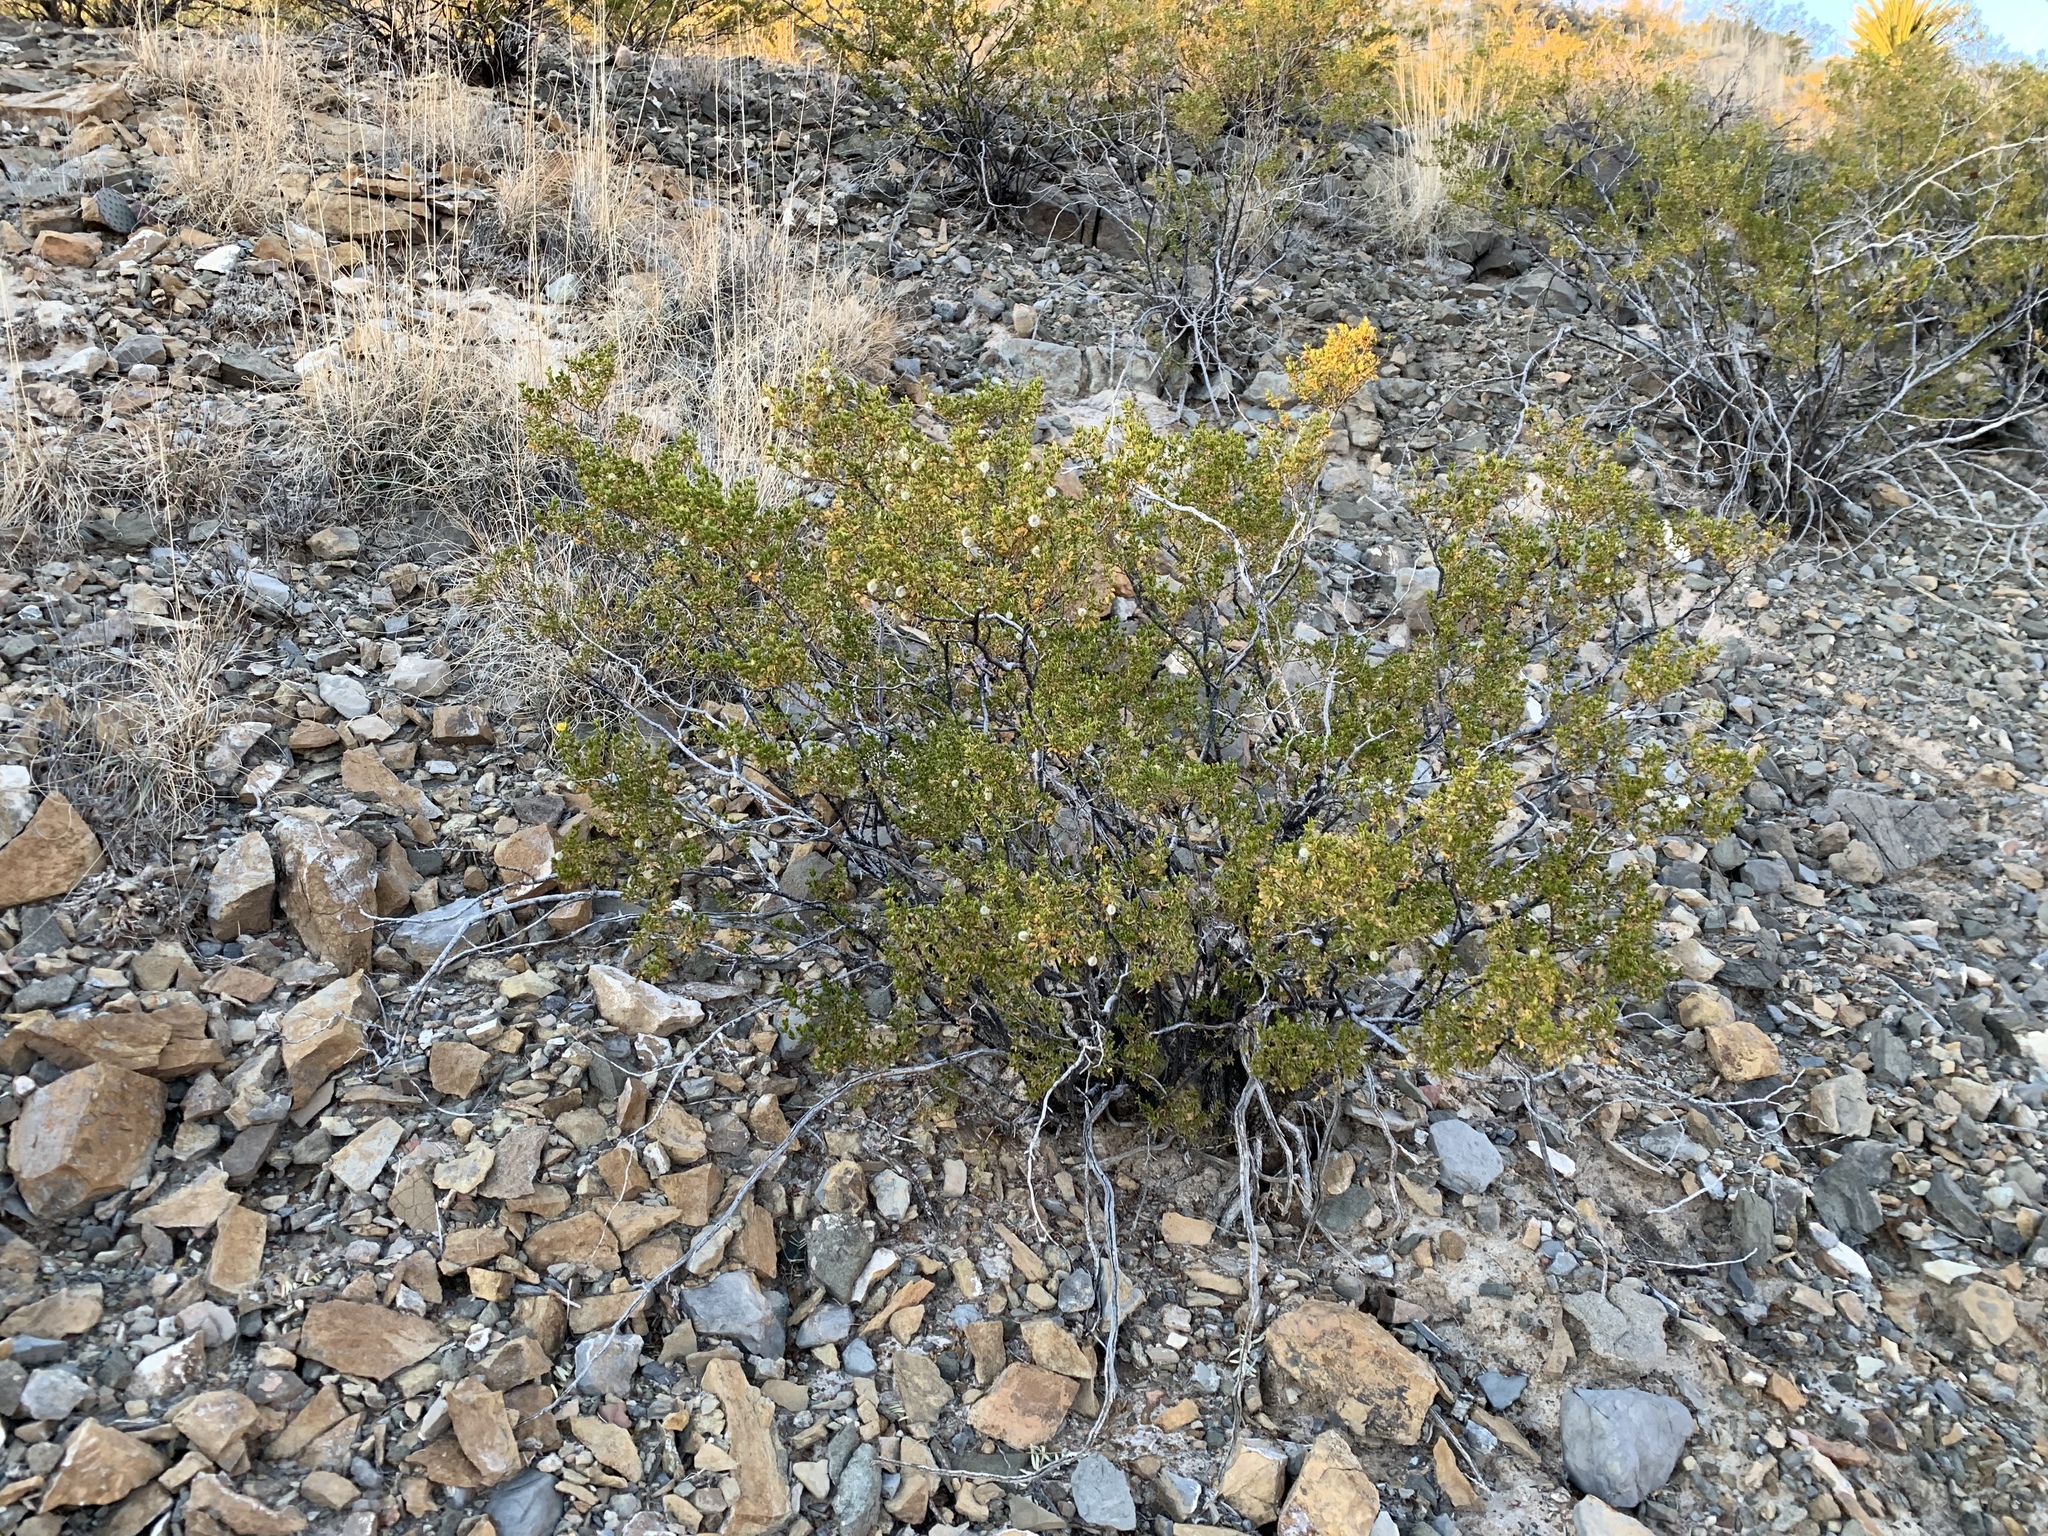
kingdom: Plantae
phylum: Tracheophyta
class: Magnoliopsida
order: Zygophyllales
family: Zygophyllaceae
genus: Larrea
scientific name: Larrea tridentata
